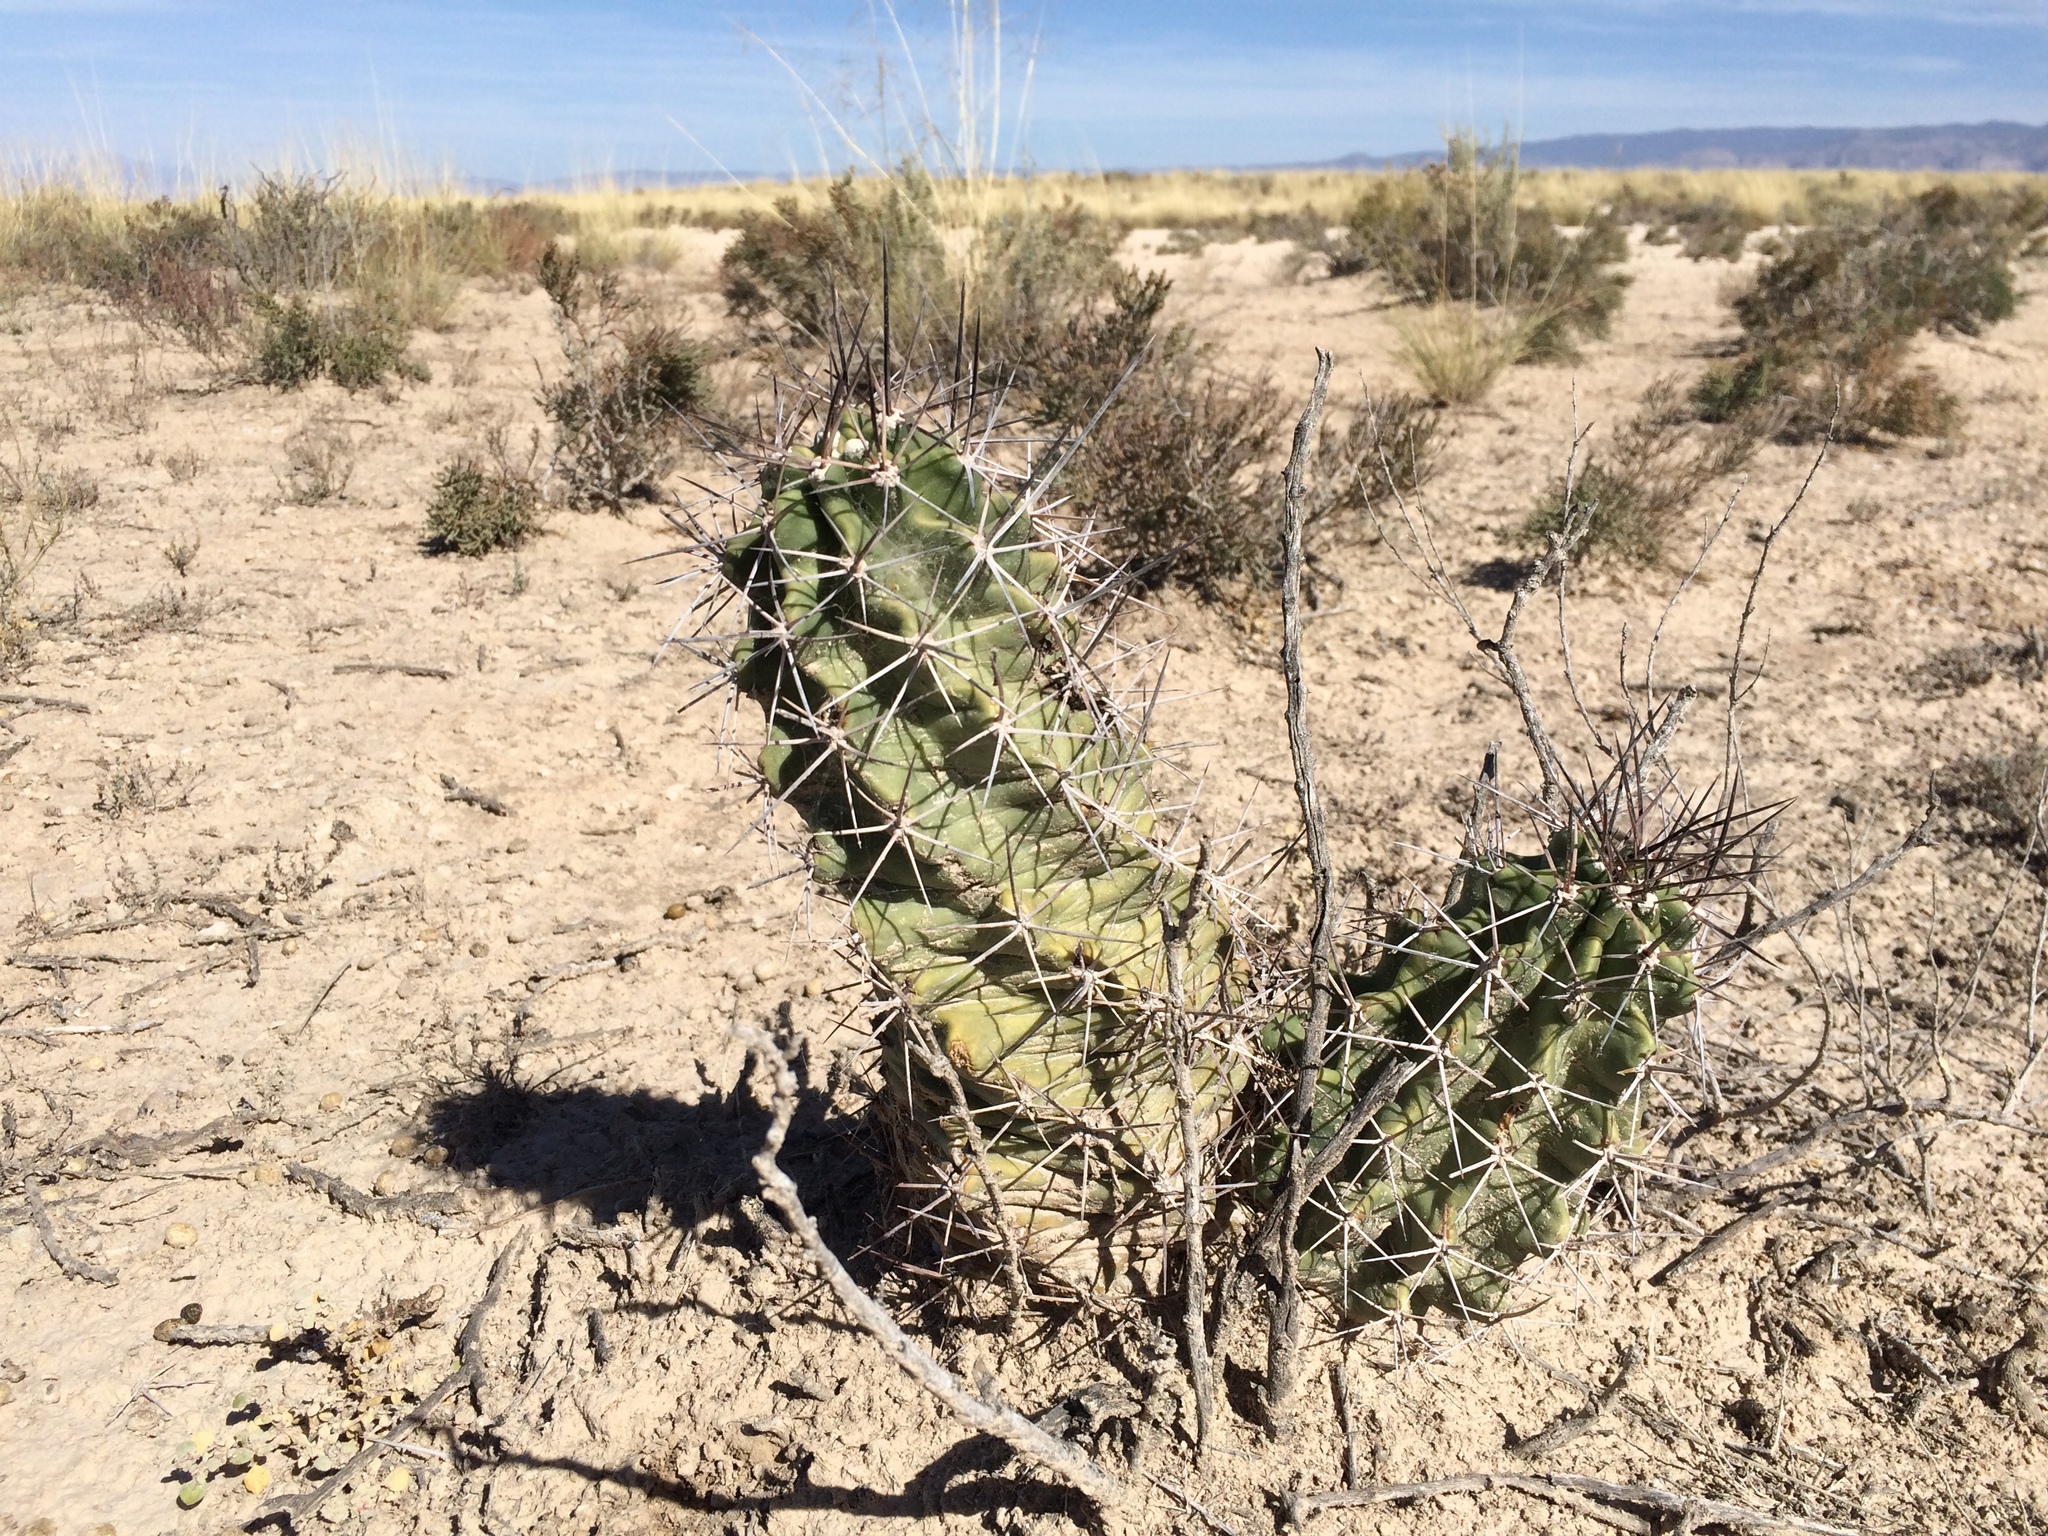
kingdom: Plantae
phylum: Tracheophyta
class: Magnoliopsida
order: Caryophyllales
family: Cactaceae
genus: Echinocereus
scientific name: Echinocereus triglochidiatus
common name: Claretcup hedgehog
